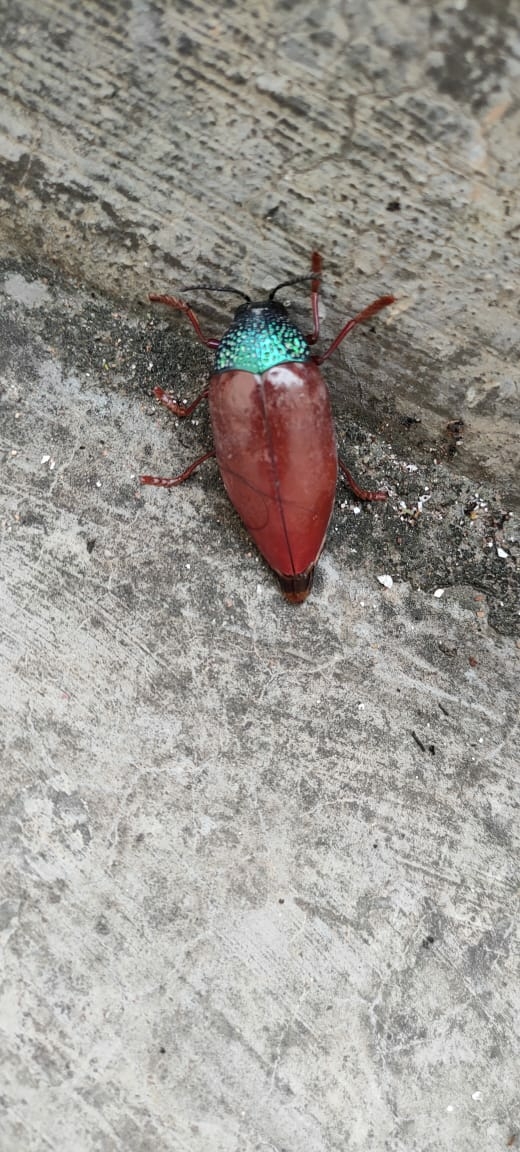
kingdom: Animalia
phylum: Arthropoda
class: Insecta
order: Coleoptera
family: Buprestidae
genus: Sternocera
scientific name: Sternocera chrysis
